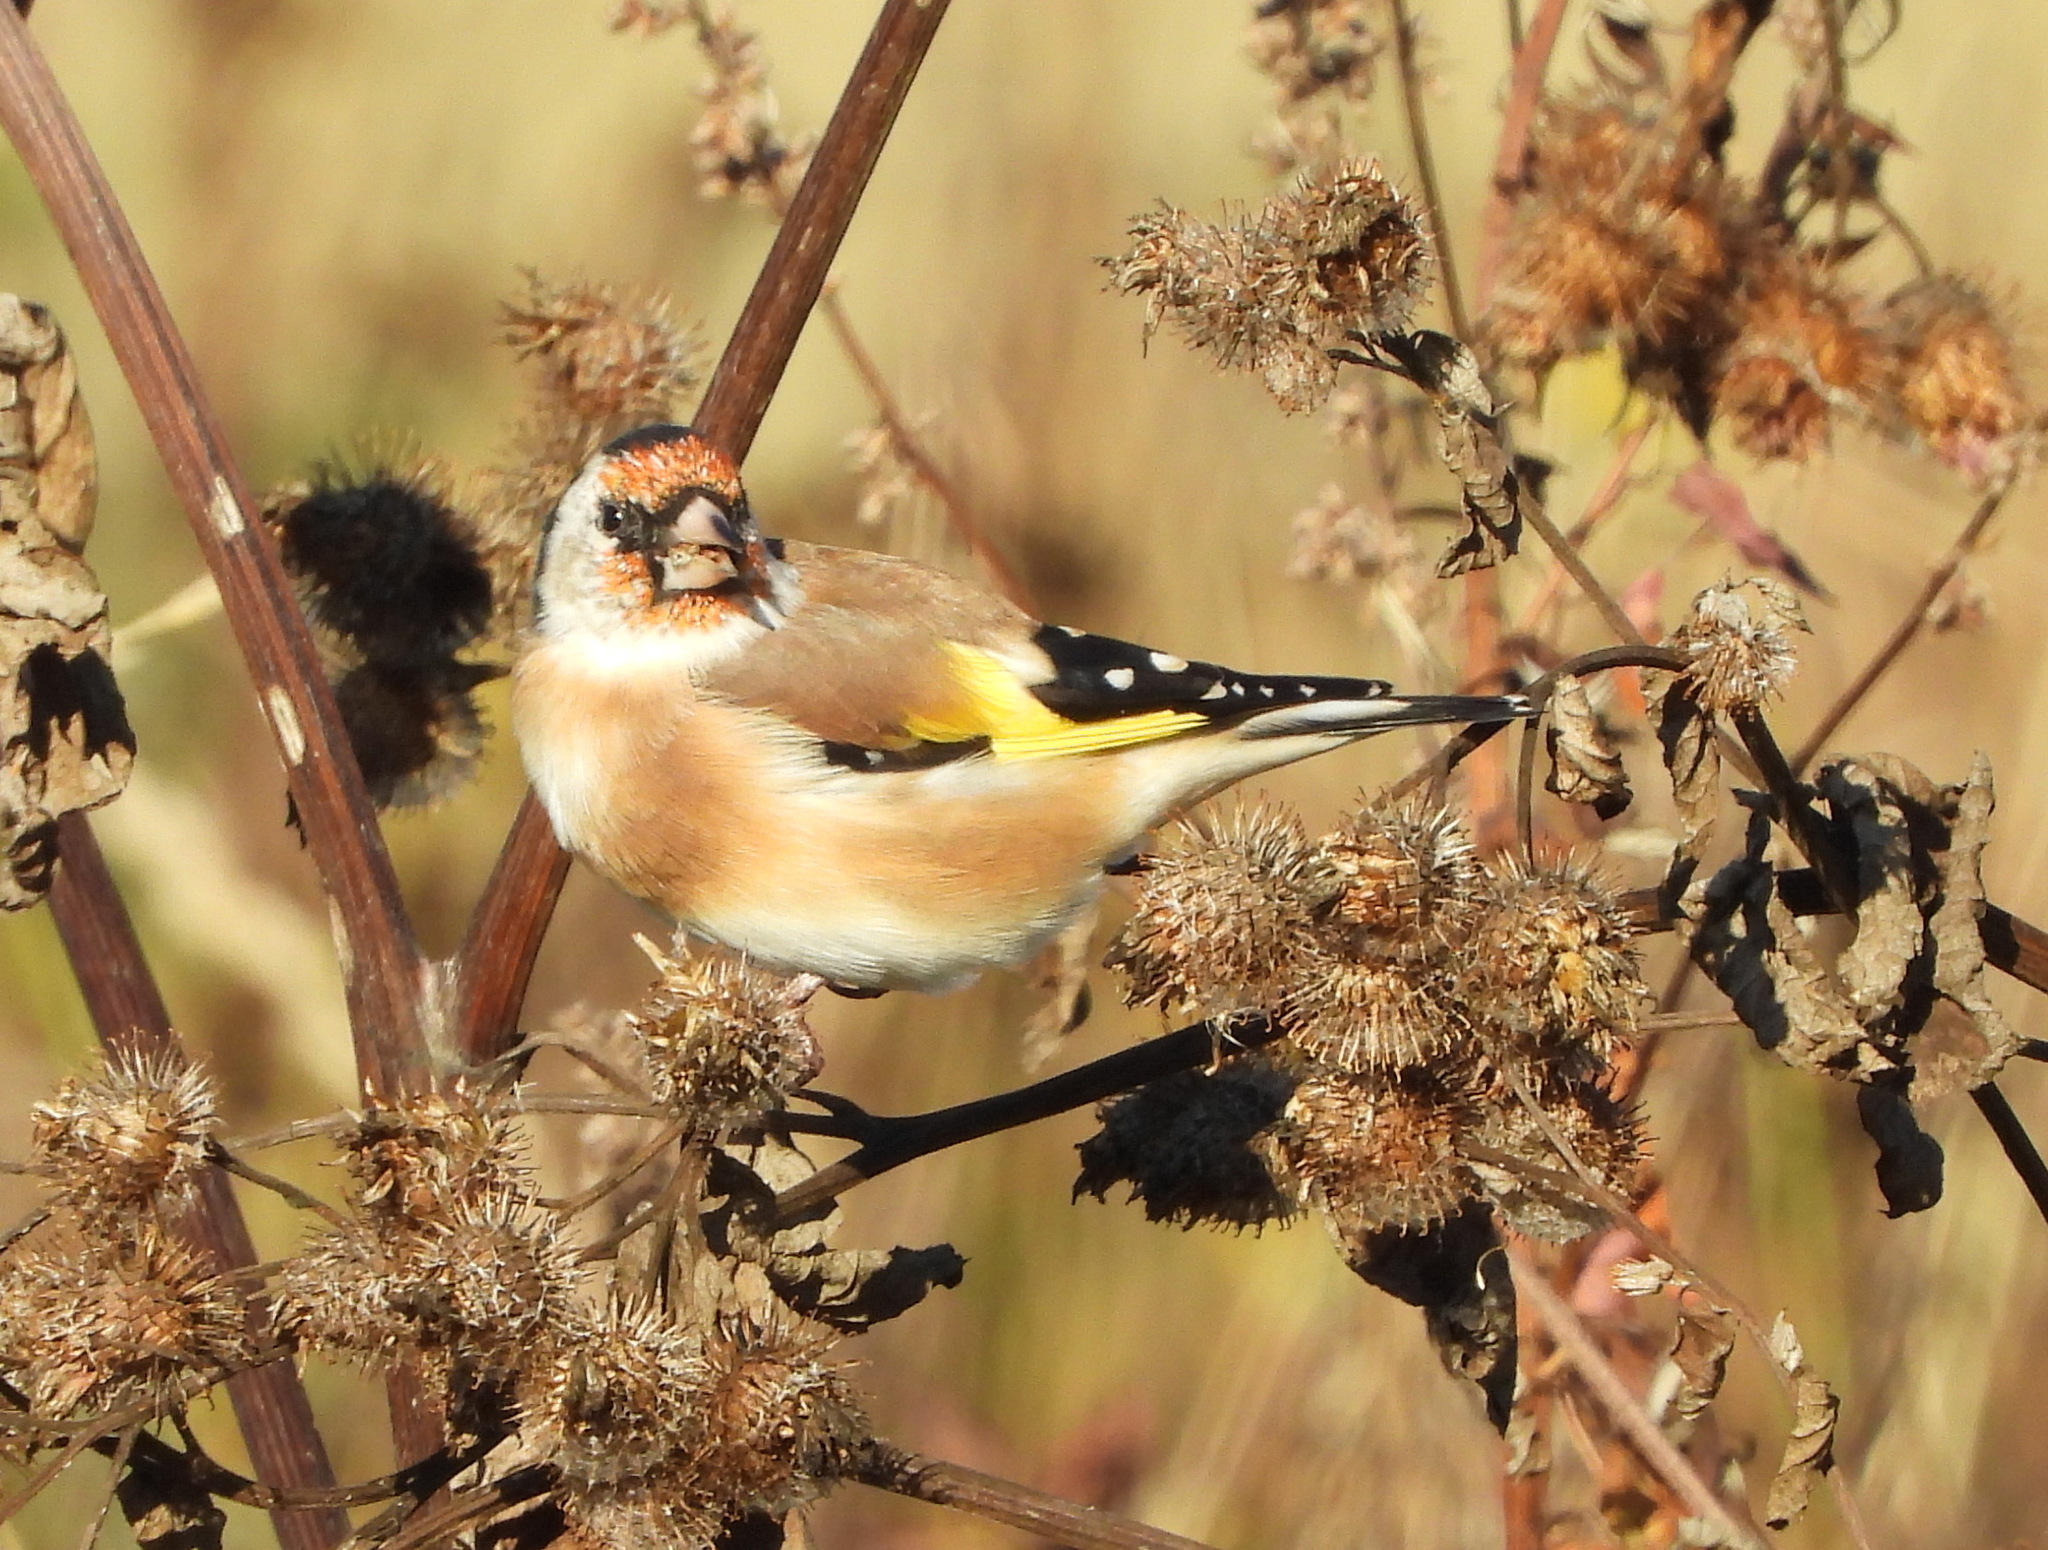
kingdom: Animalia
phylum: Chordata
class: Aves
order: Passeriformes
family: Fringillidae
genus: Carduelis
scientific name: Carduelis carduelis
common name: European goldfinch
